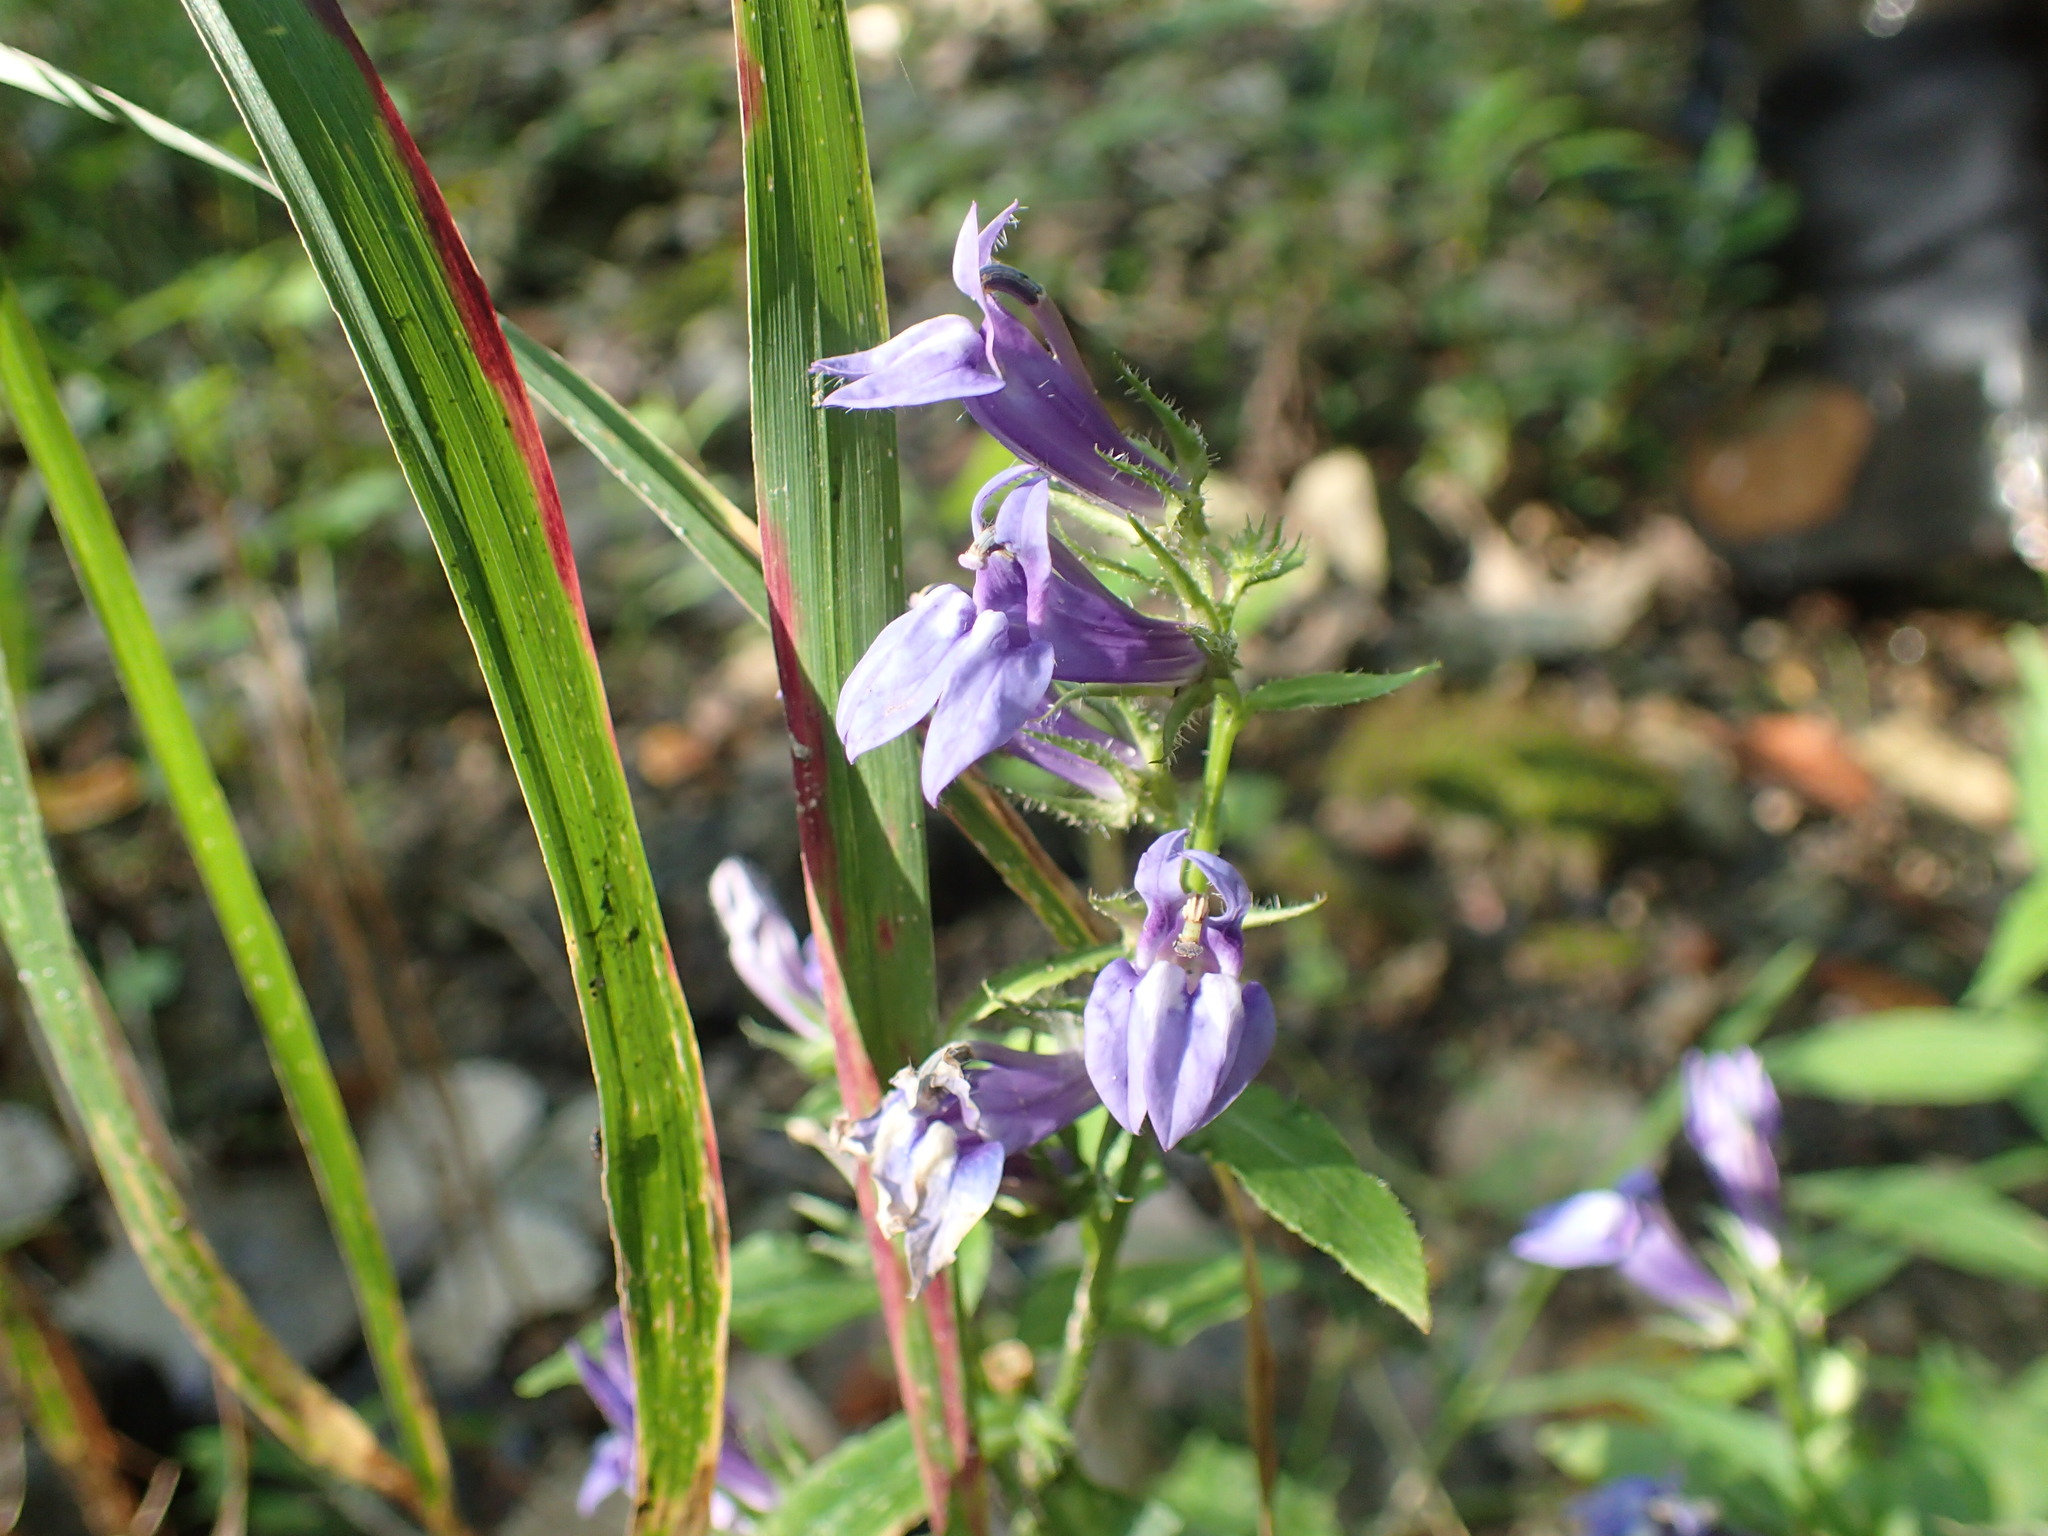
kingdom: Plantae
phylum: Tracheophyta
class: Magnoliopsida
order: Asterales
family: Campanulaceae
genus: Lobelia
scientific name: Lobelia siphilitica
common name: Great lobelia
